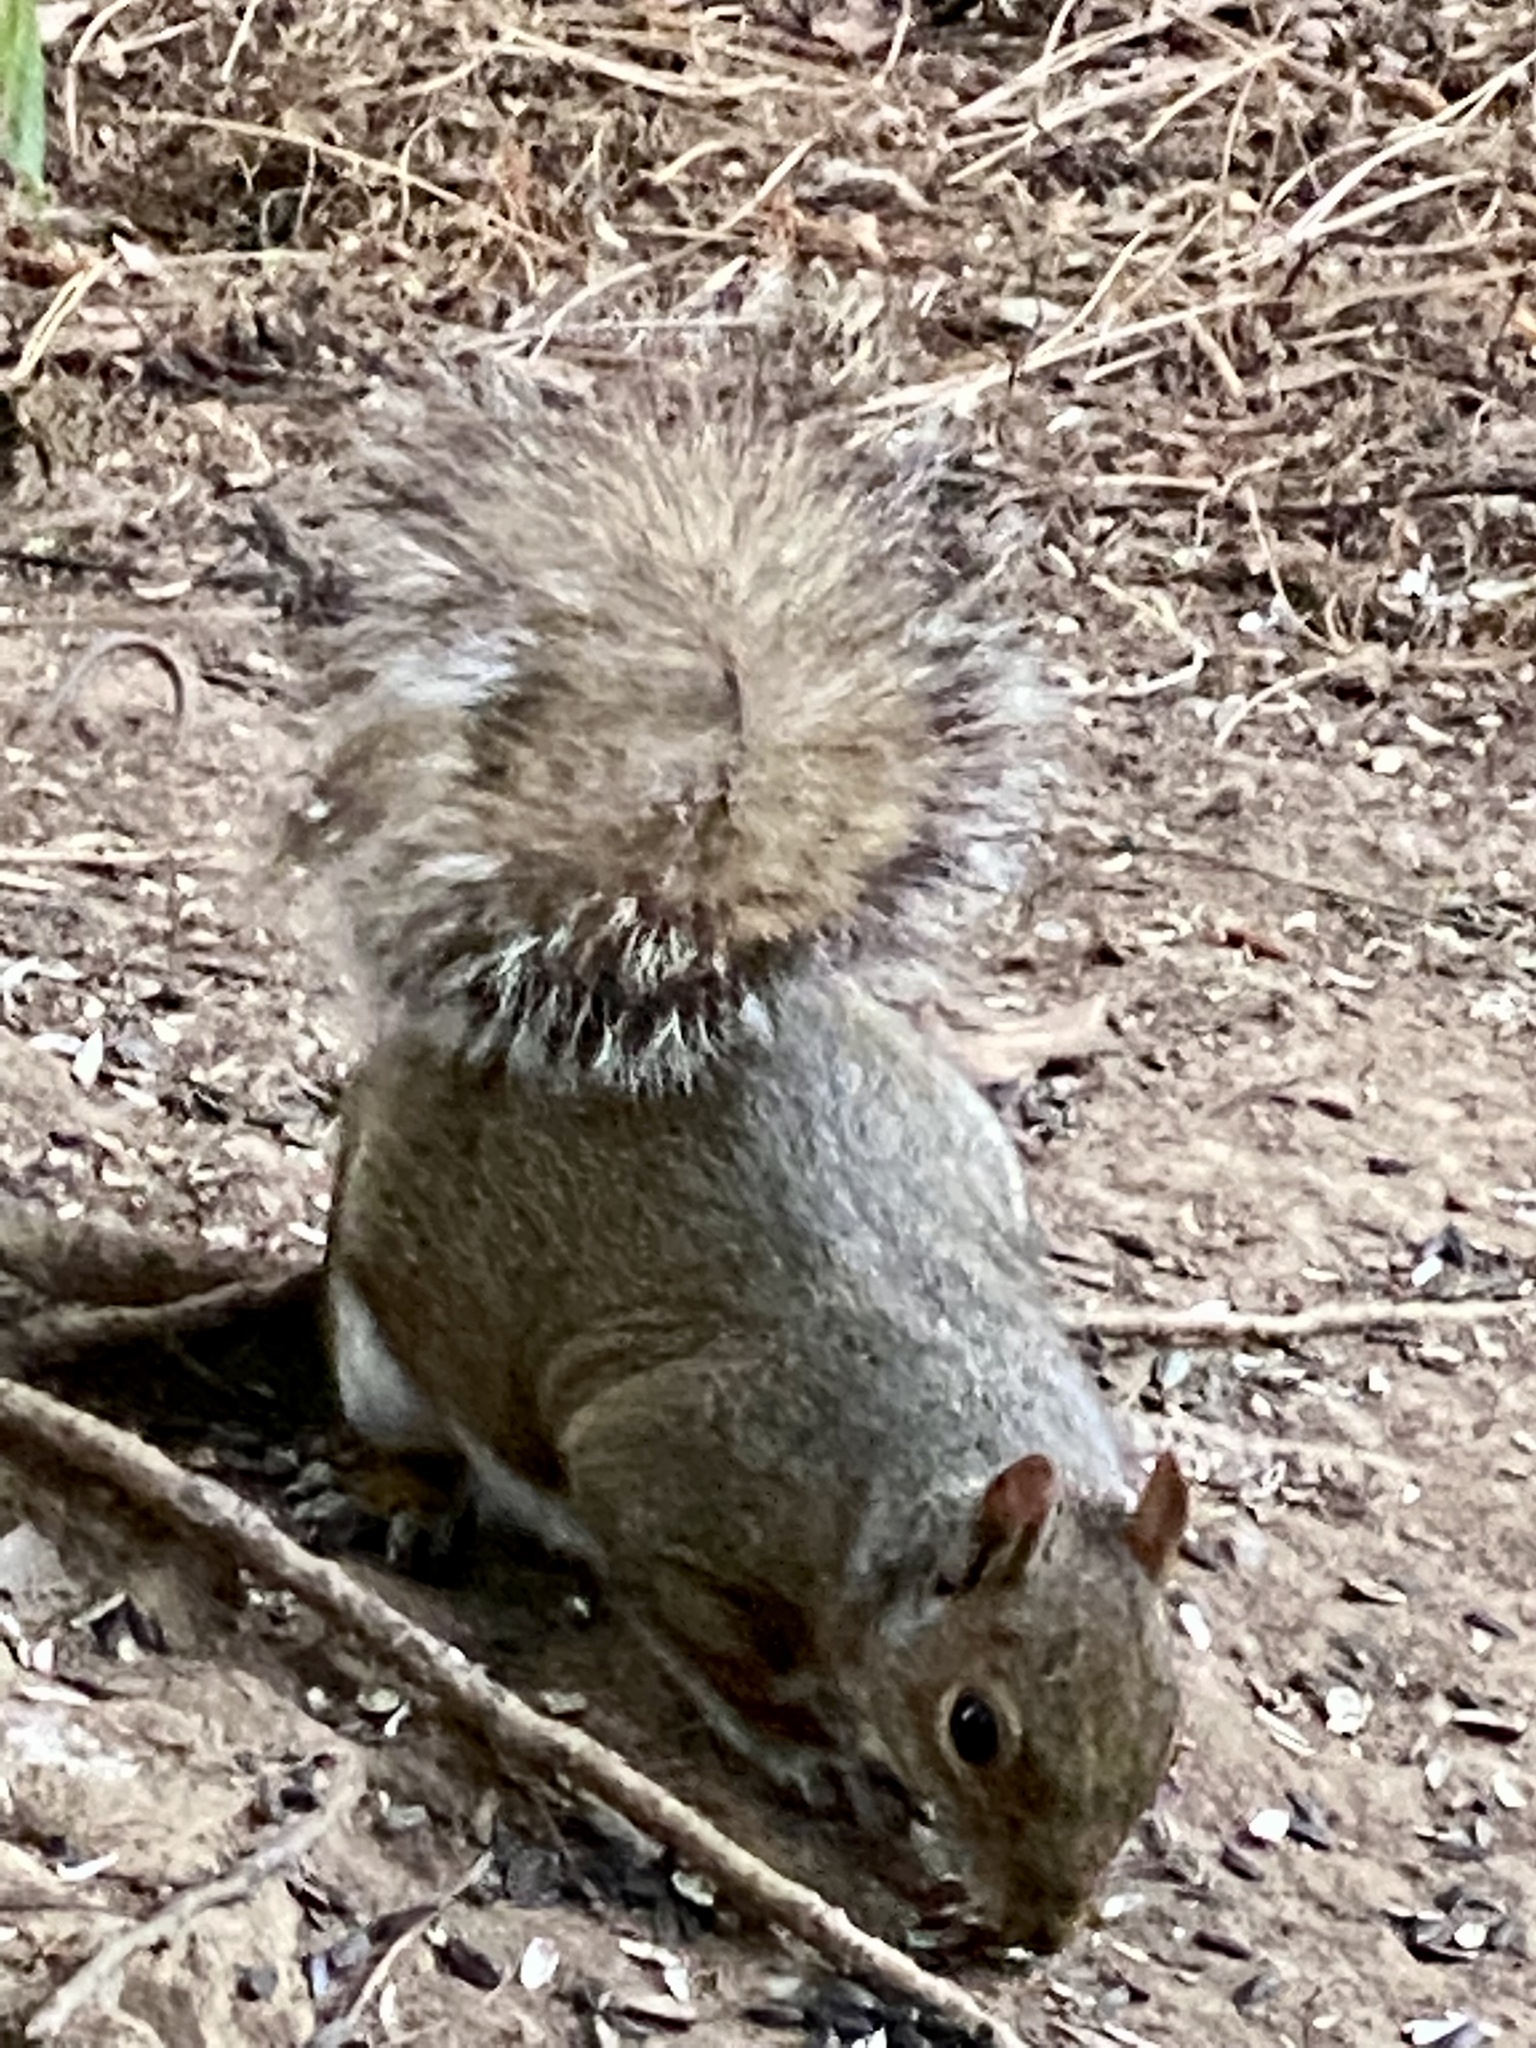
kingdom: Animalia
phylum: Chordata
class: Mammalia
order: Rodentia
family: Sciuridae
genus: Sciurus
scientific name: Sciurus carolinensis
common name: Eastern gray squirrel
